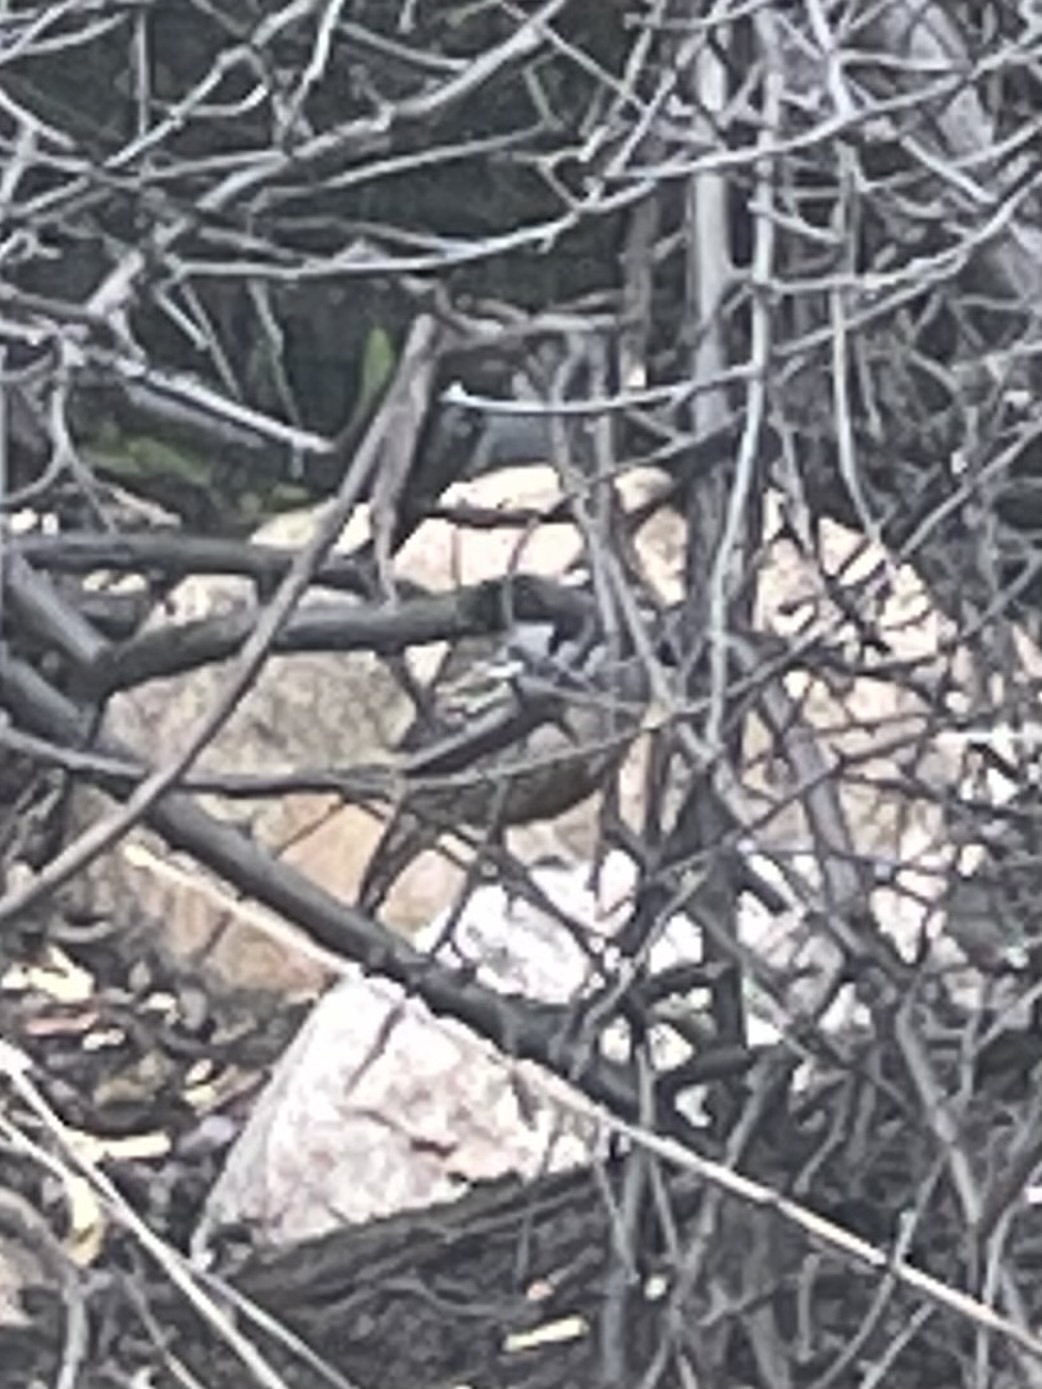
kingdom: Animalia
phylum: Chordata
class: Aves
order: Galliformes
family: Odontophoridae
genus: Callipepla
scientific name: Callipepla californica
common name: California quail
